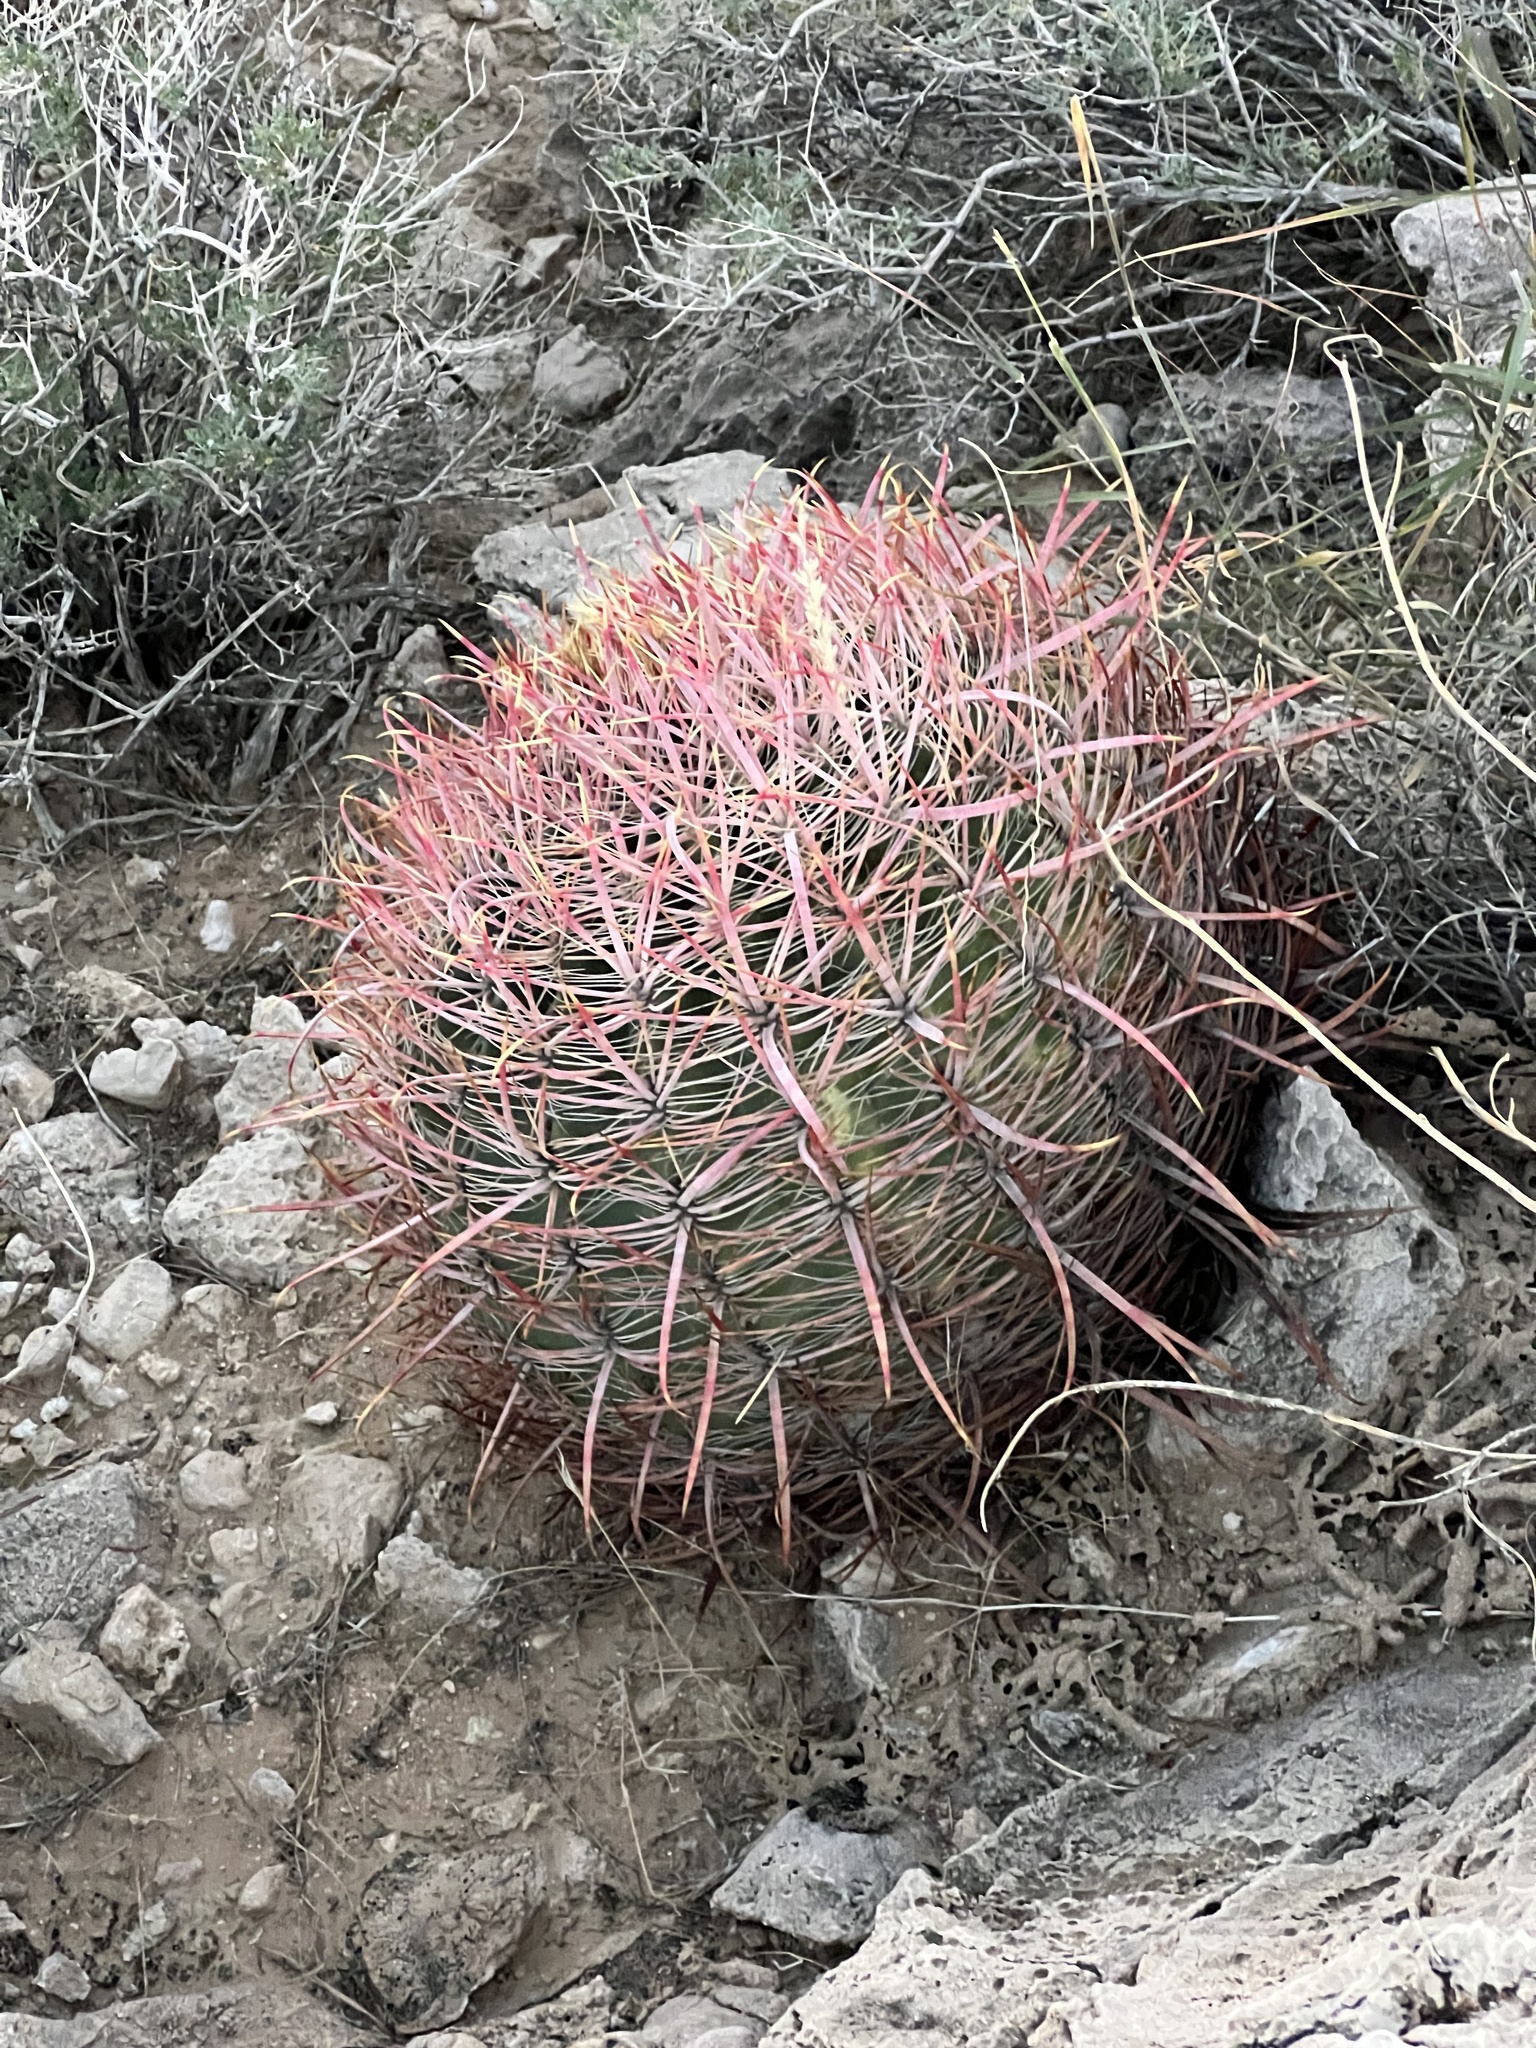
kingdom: Plantae
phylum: Tracheophyta
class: Magnoliopsida
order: Caryophyllales
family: Cactaceae
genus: Ferocactus
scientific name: Ferocactus cylindraceus
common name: California barrel cactus
